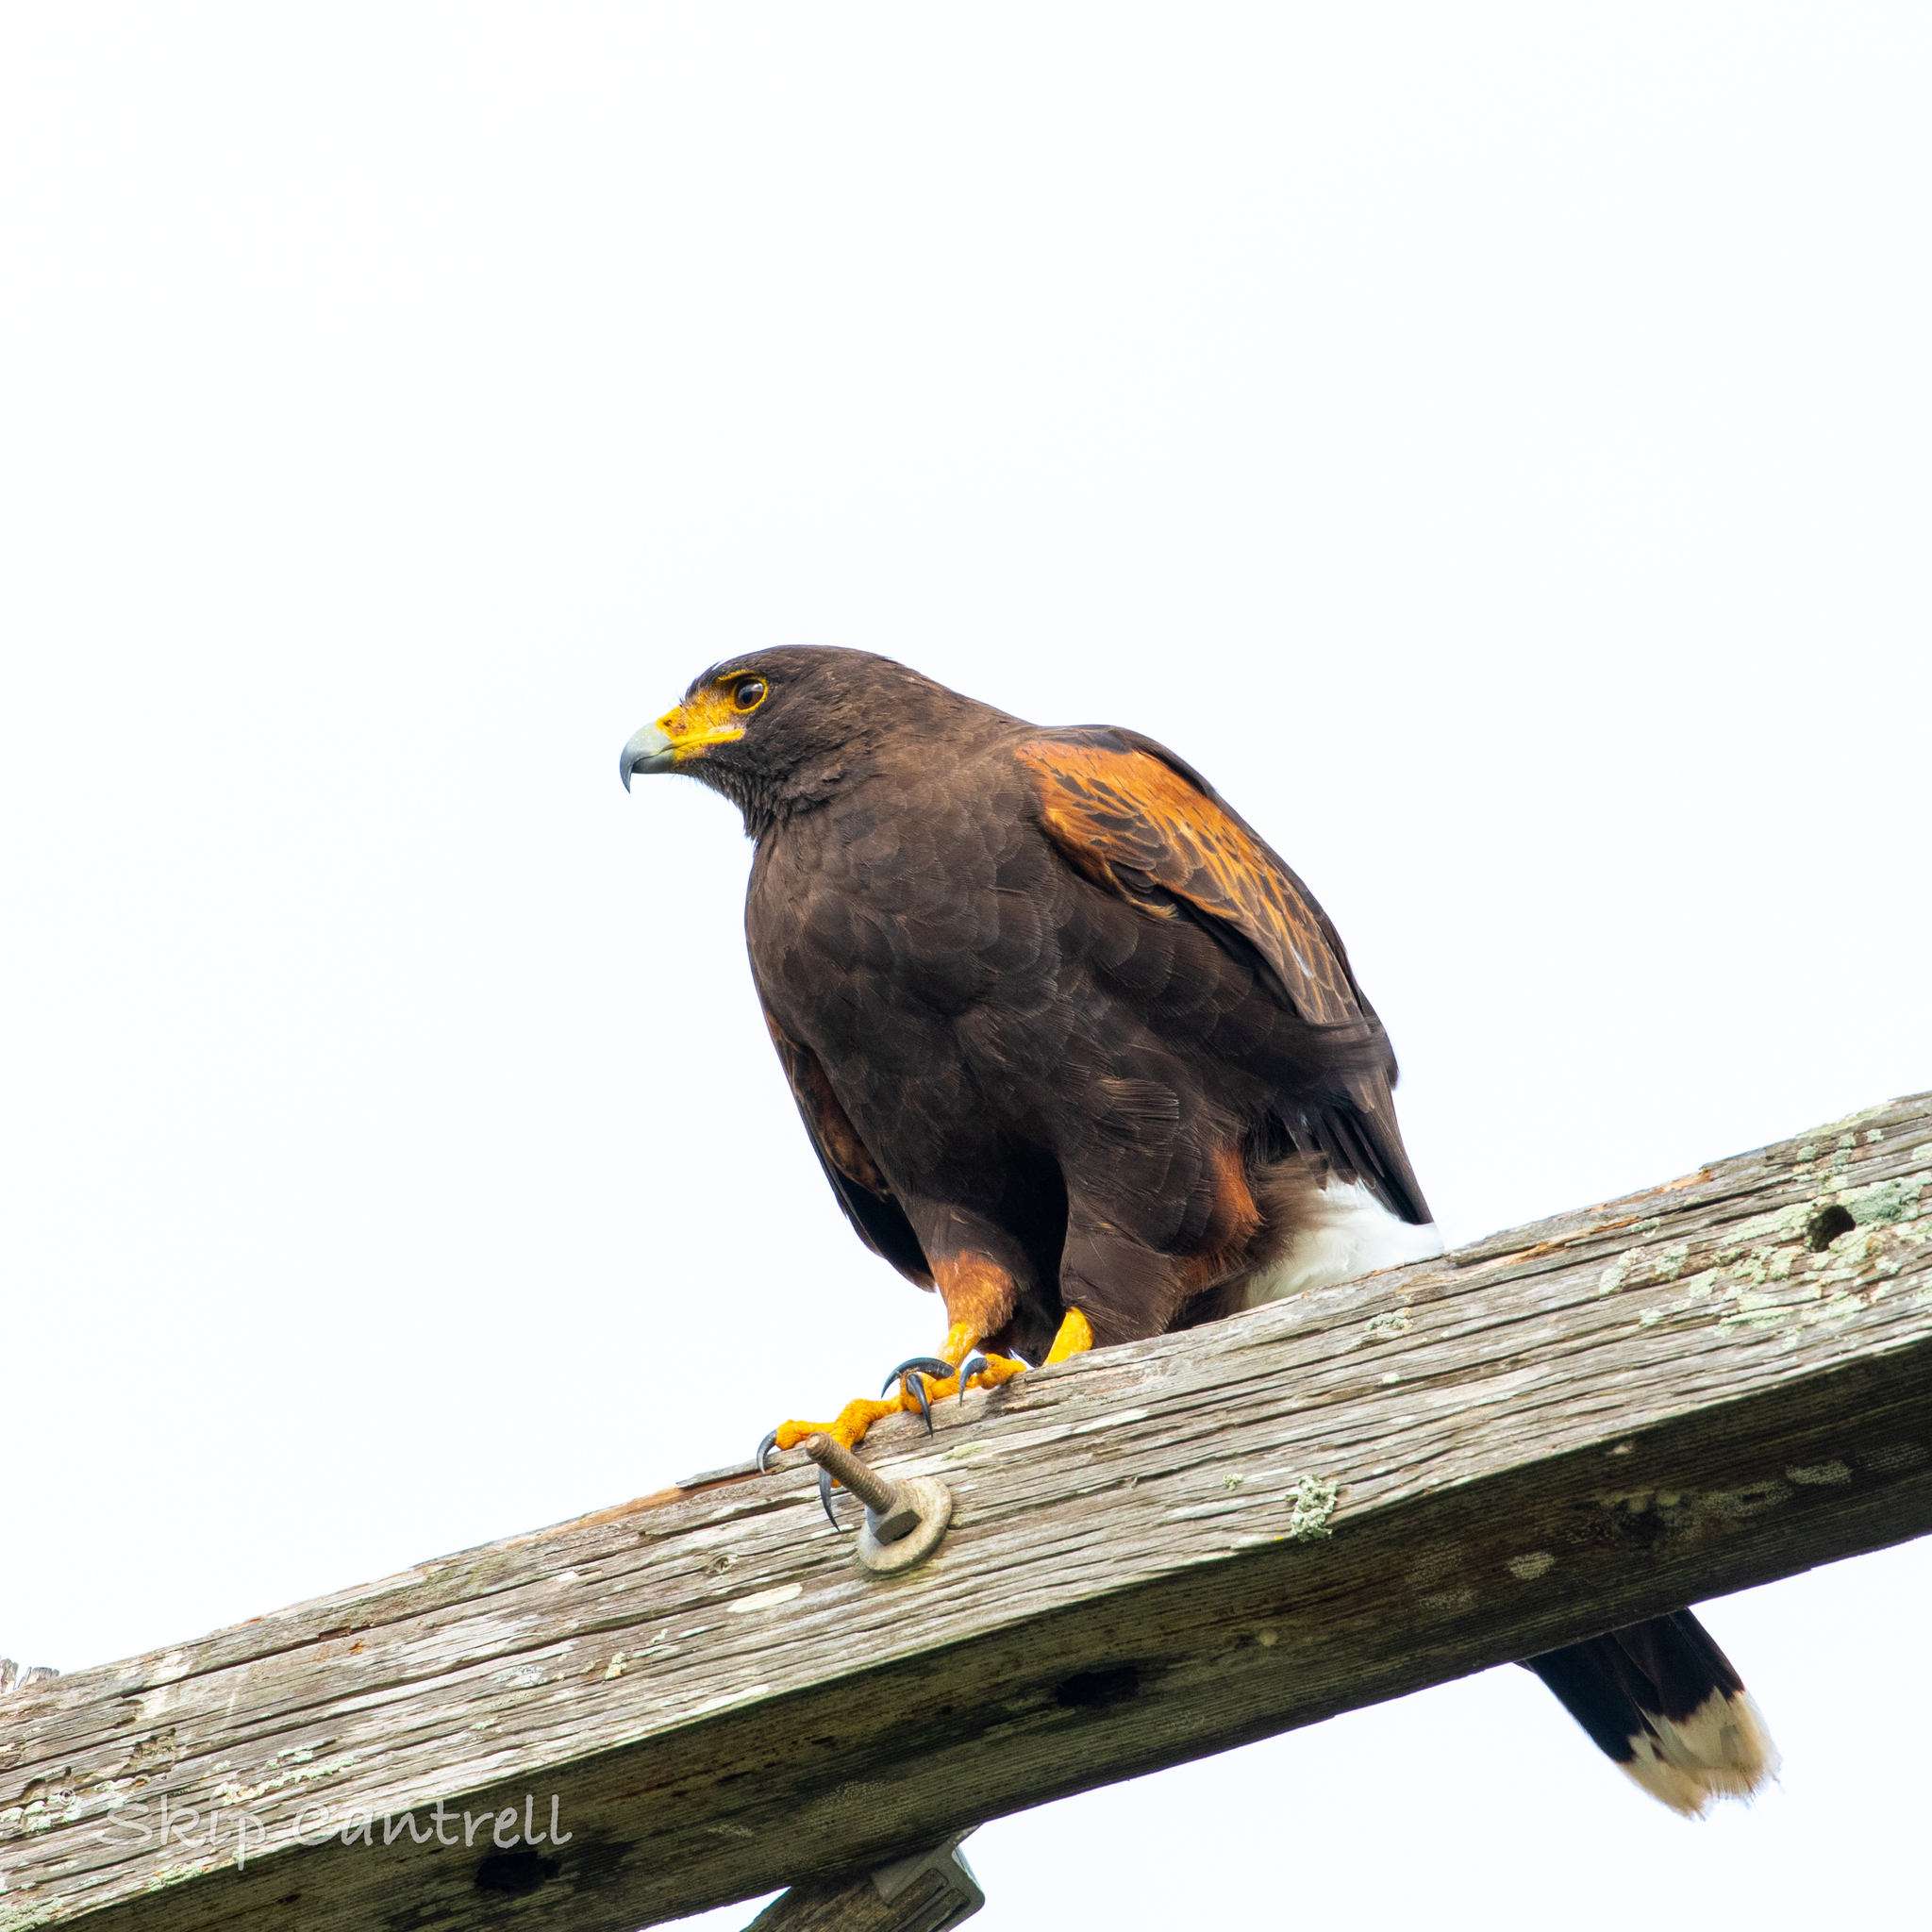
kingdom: Animalia
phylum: Chordata
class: Aves
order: Accipitriformes
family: Accipitridae
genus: Parabuteo
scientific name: Parabuteo unicinctus
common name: Harris's hawk
